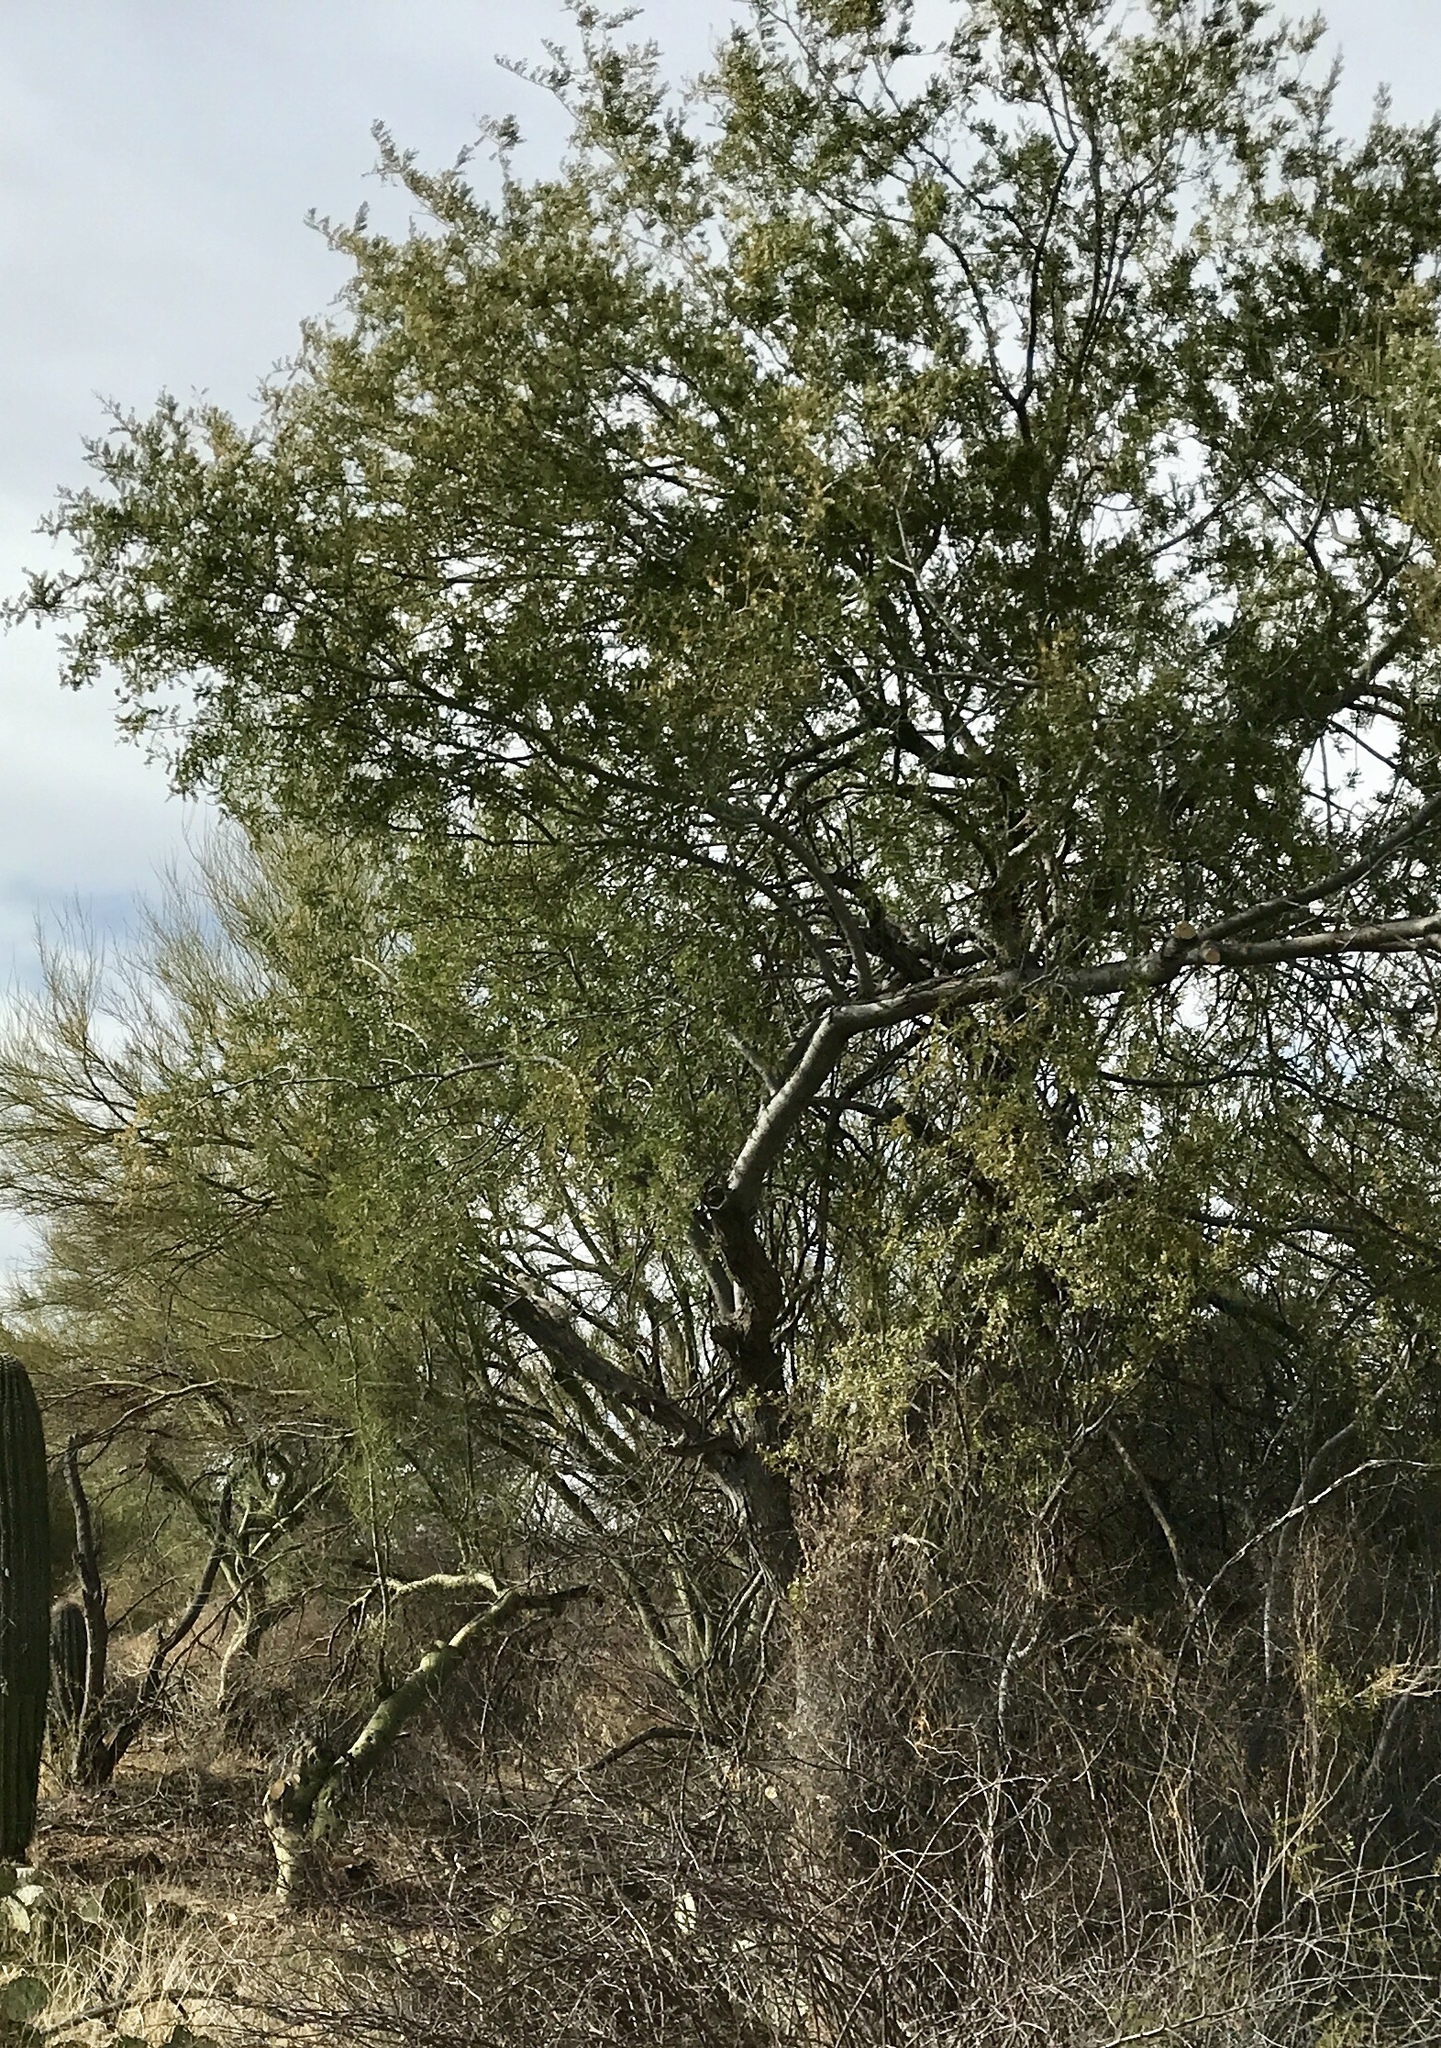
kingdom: Plantae
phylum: Tracheophyta
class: Magnoliopsida
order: Fabales
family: Fabaceae
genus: Olneya
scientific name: Olneya tesota
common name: Desert ironwood
